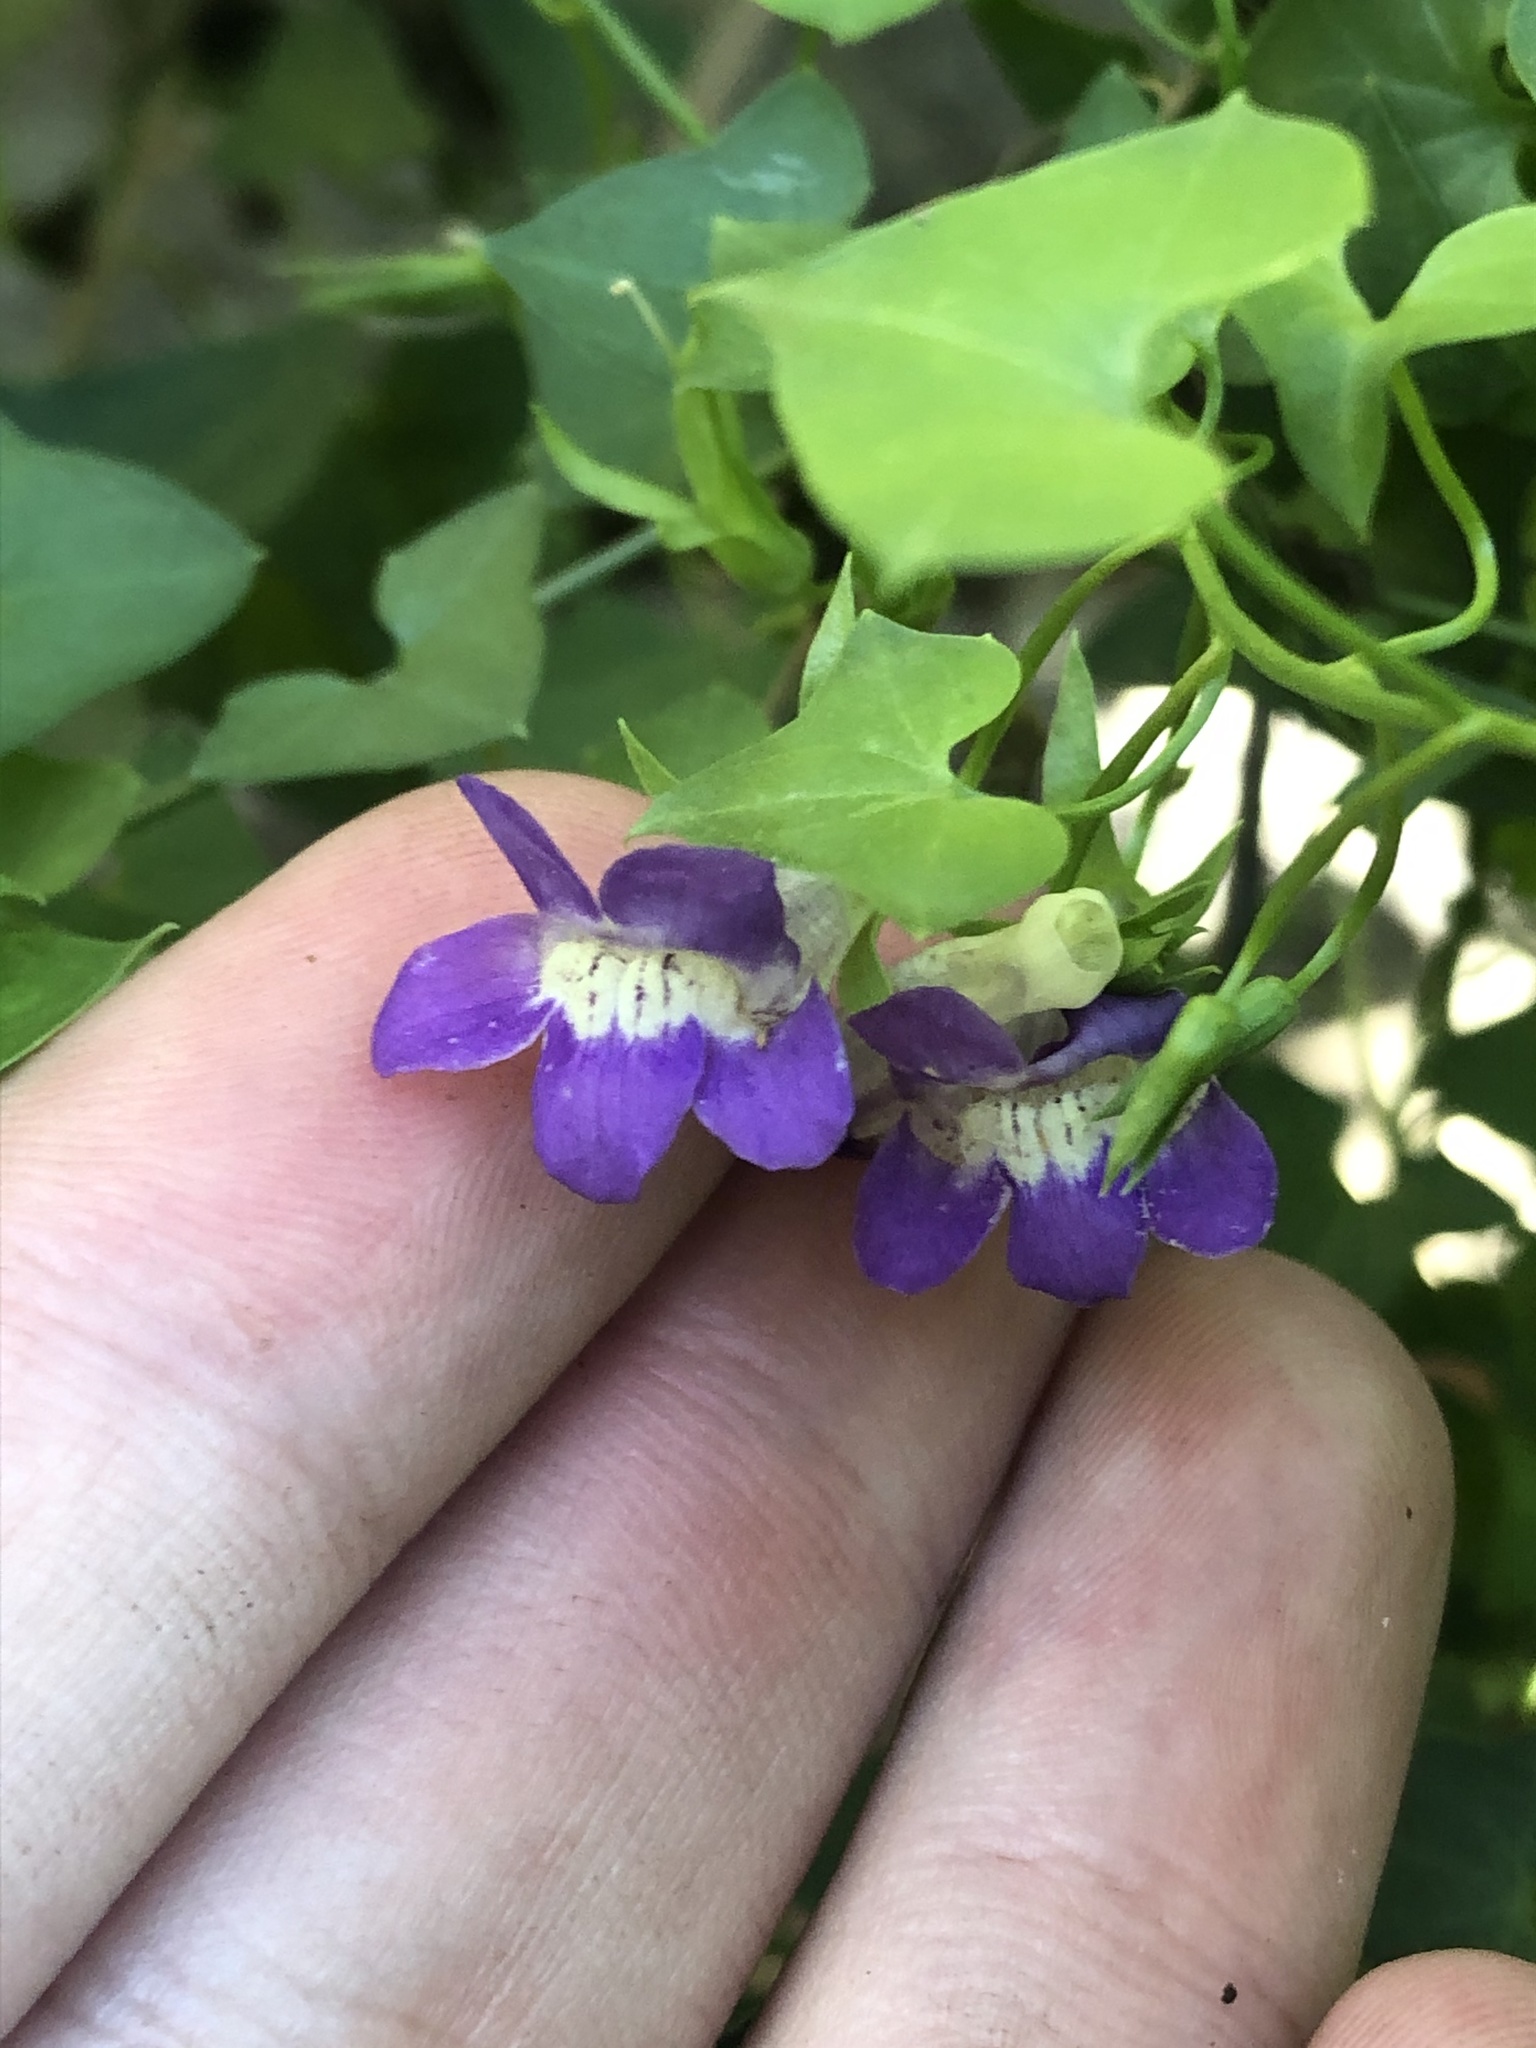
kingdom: Plantae
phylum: Tracheophyta
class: Magnoliopsida
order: Lamiales
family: Plantaginaceae
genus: Maurandella
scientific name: Maurandella antirrhiniflora
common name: Violet twining-snapdragon
